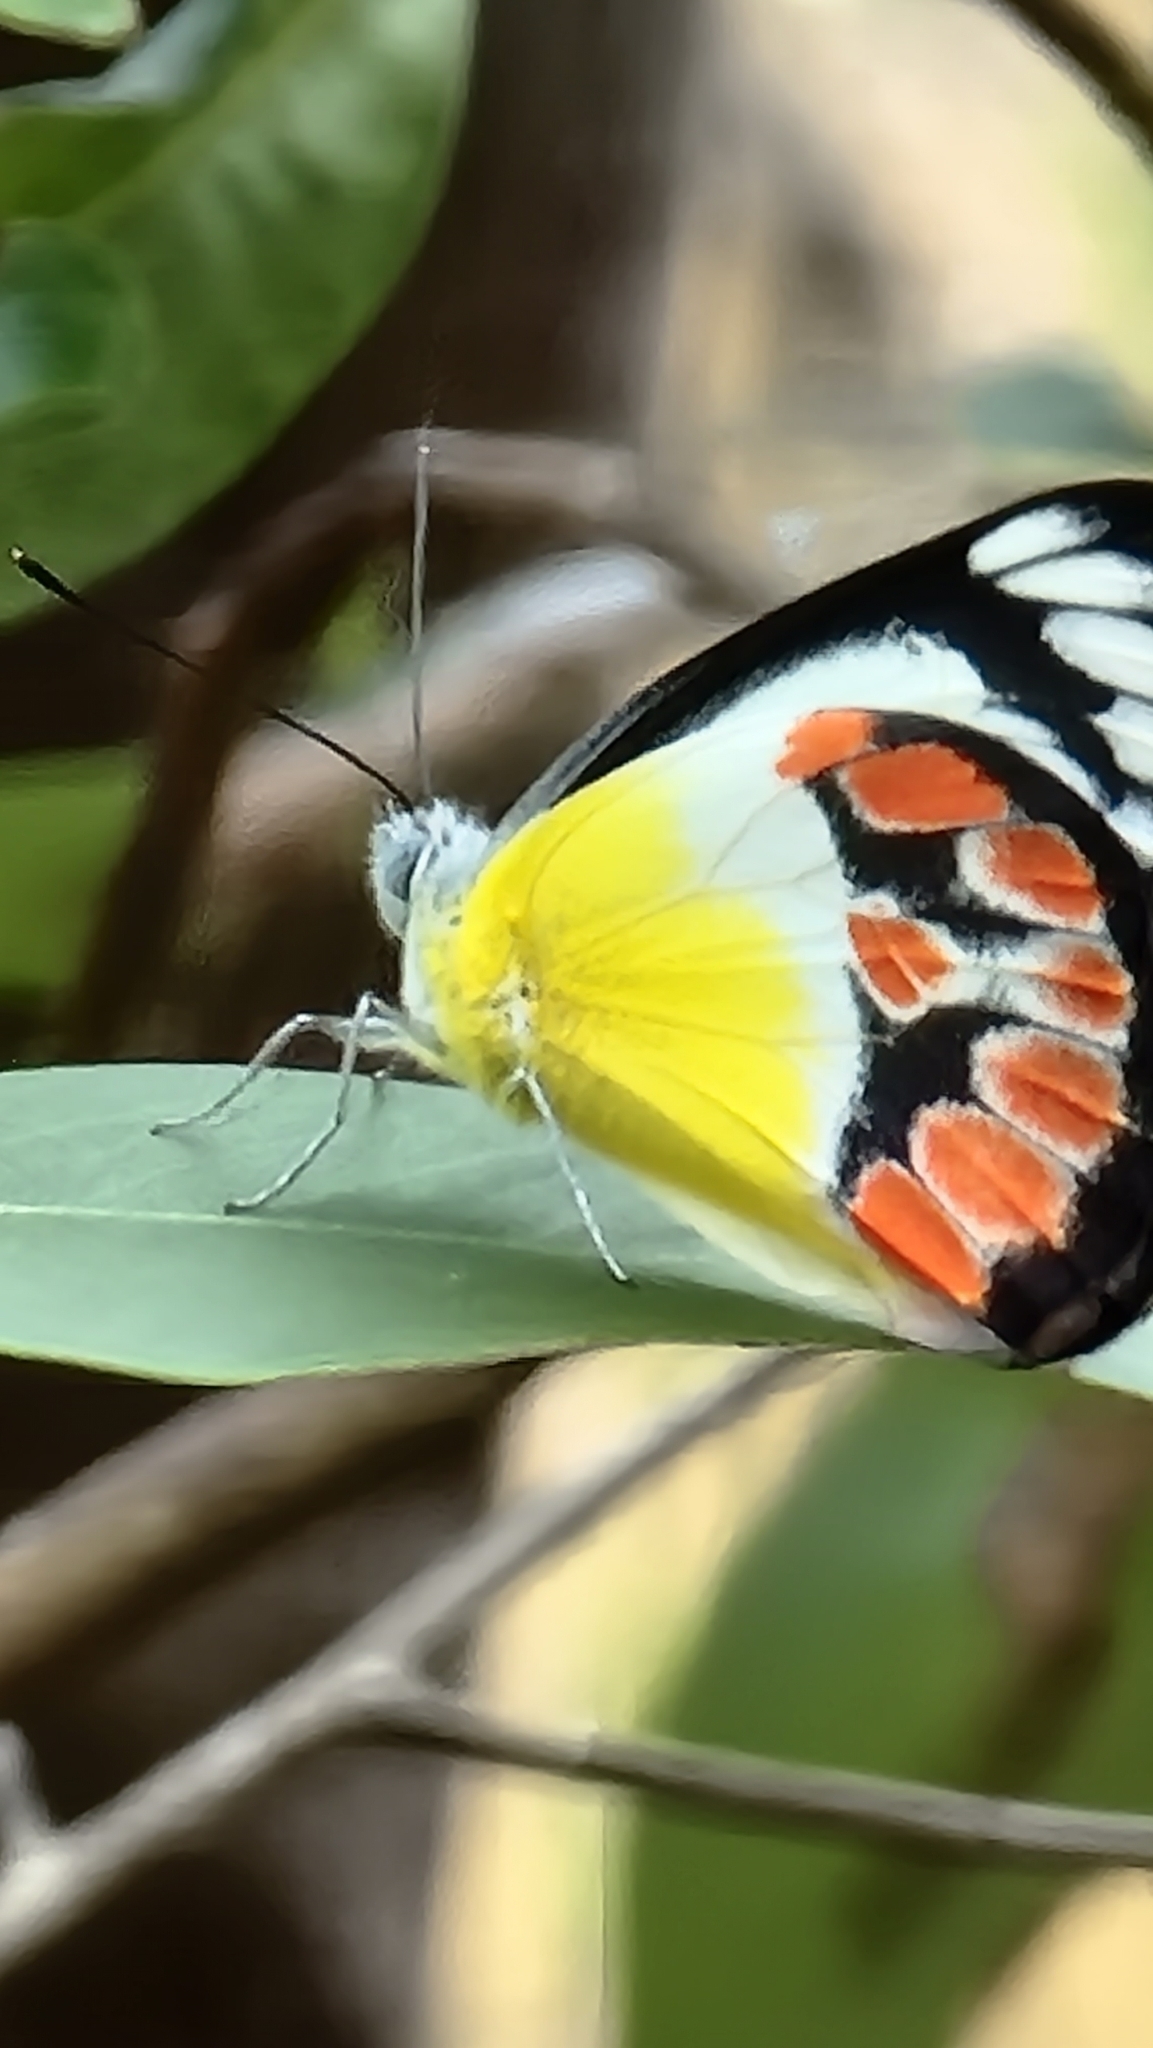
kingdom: Animalia
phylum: Arthropoda
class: Insecta
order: Lepidoptera
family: Pieridae
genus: Delias
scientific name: Delias argenthona
